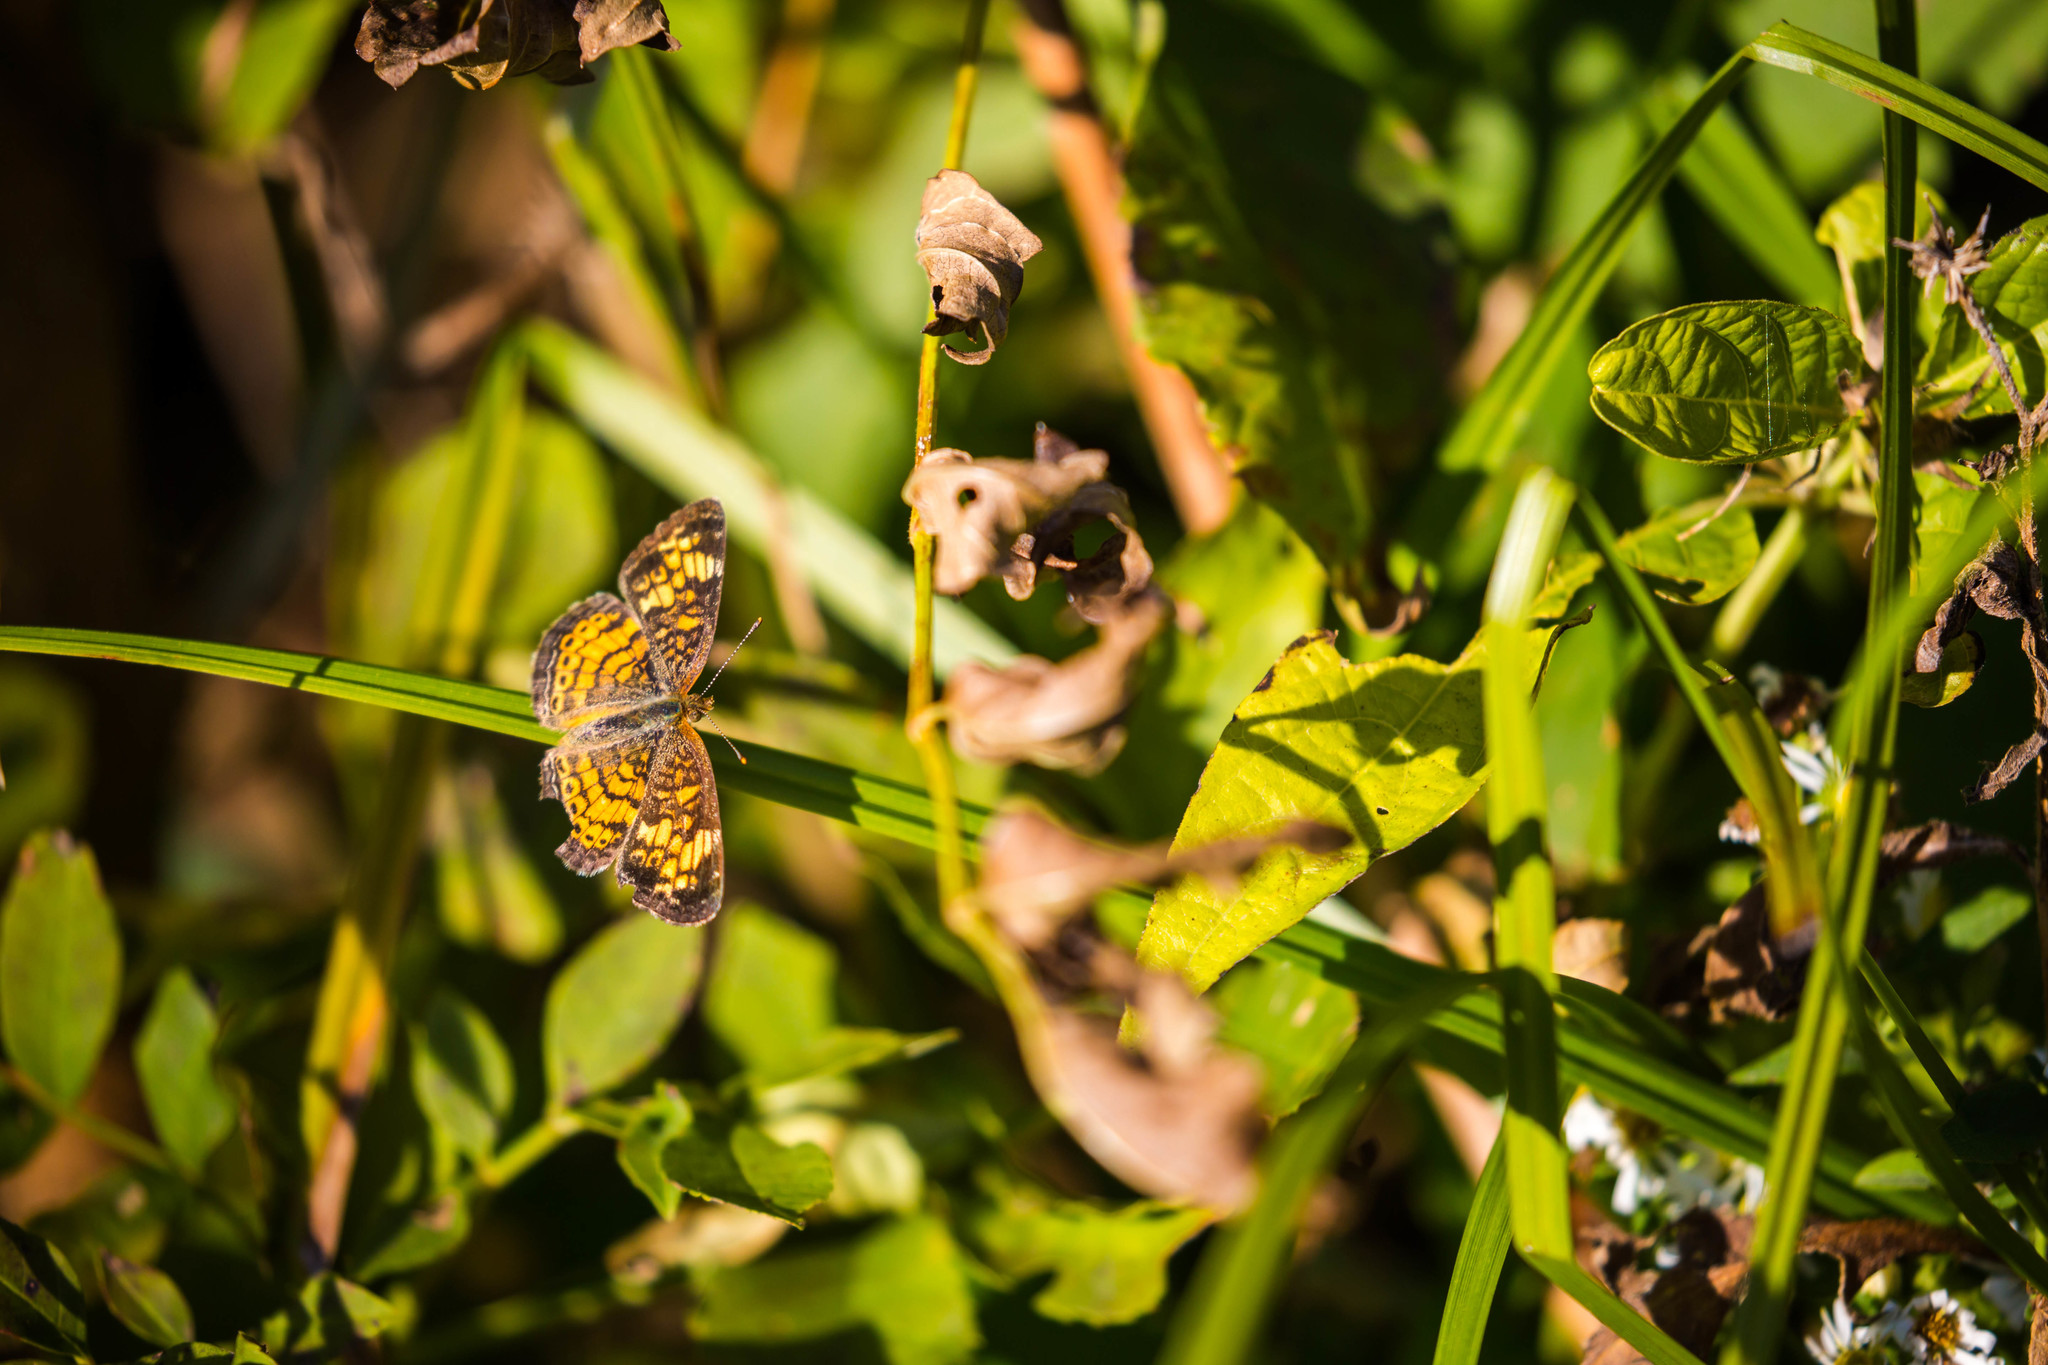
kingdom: Animalia
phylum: Arthropoda
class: Insecta
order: Lepidoptera
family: Nymphalidae
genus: Phyciodes
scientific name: Phyciodes tharos
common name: Pearl crescent
